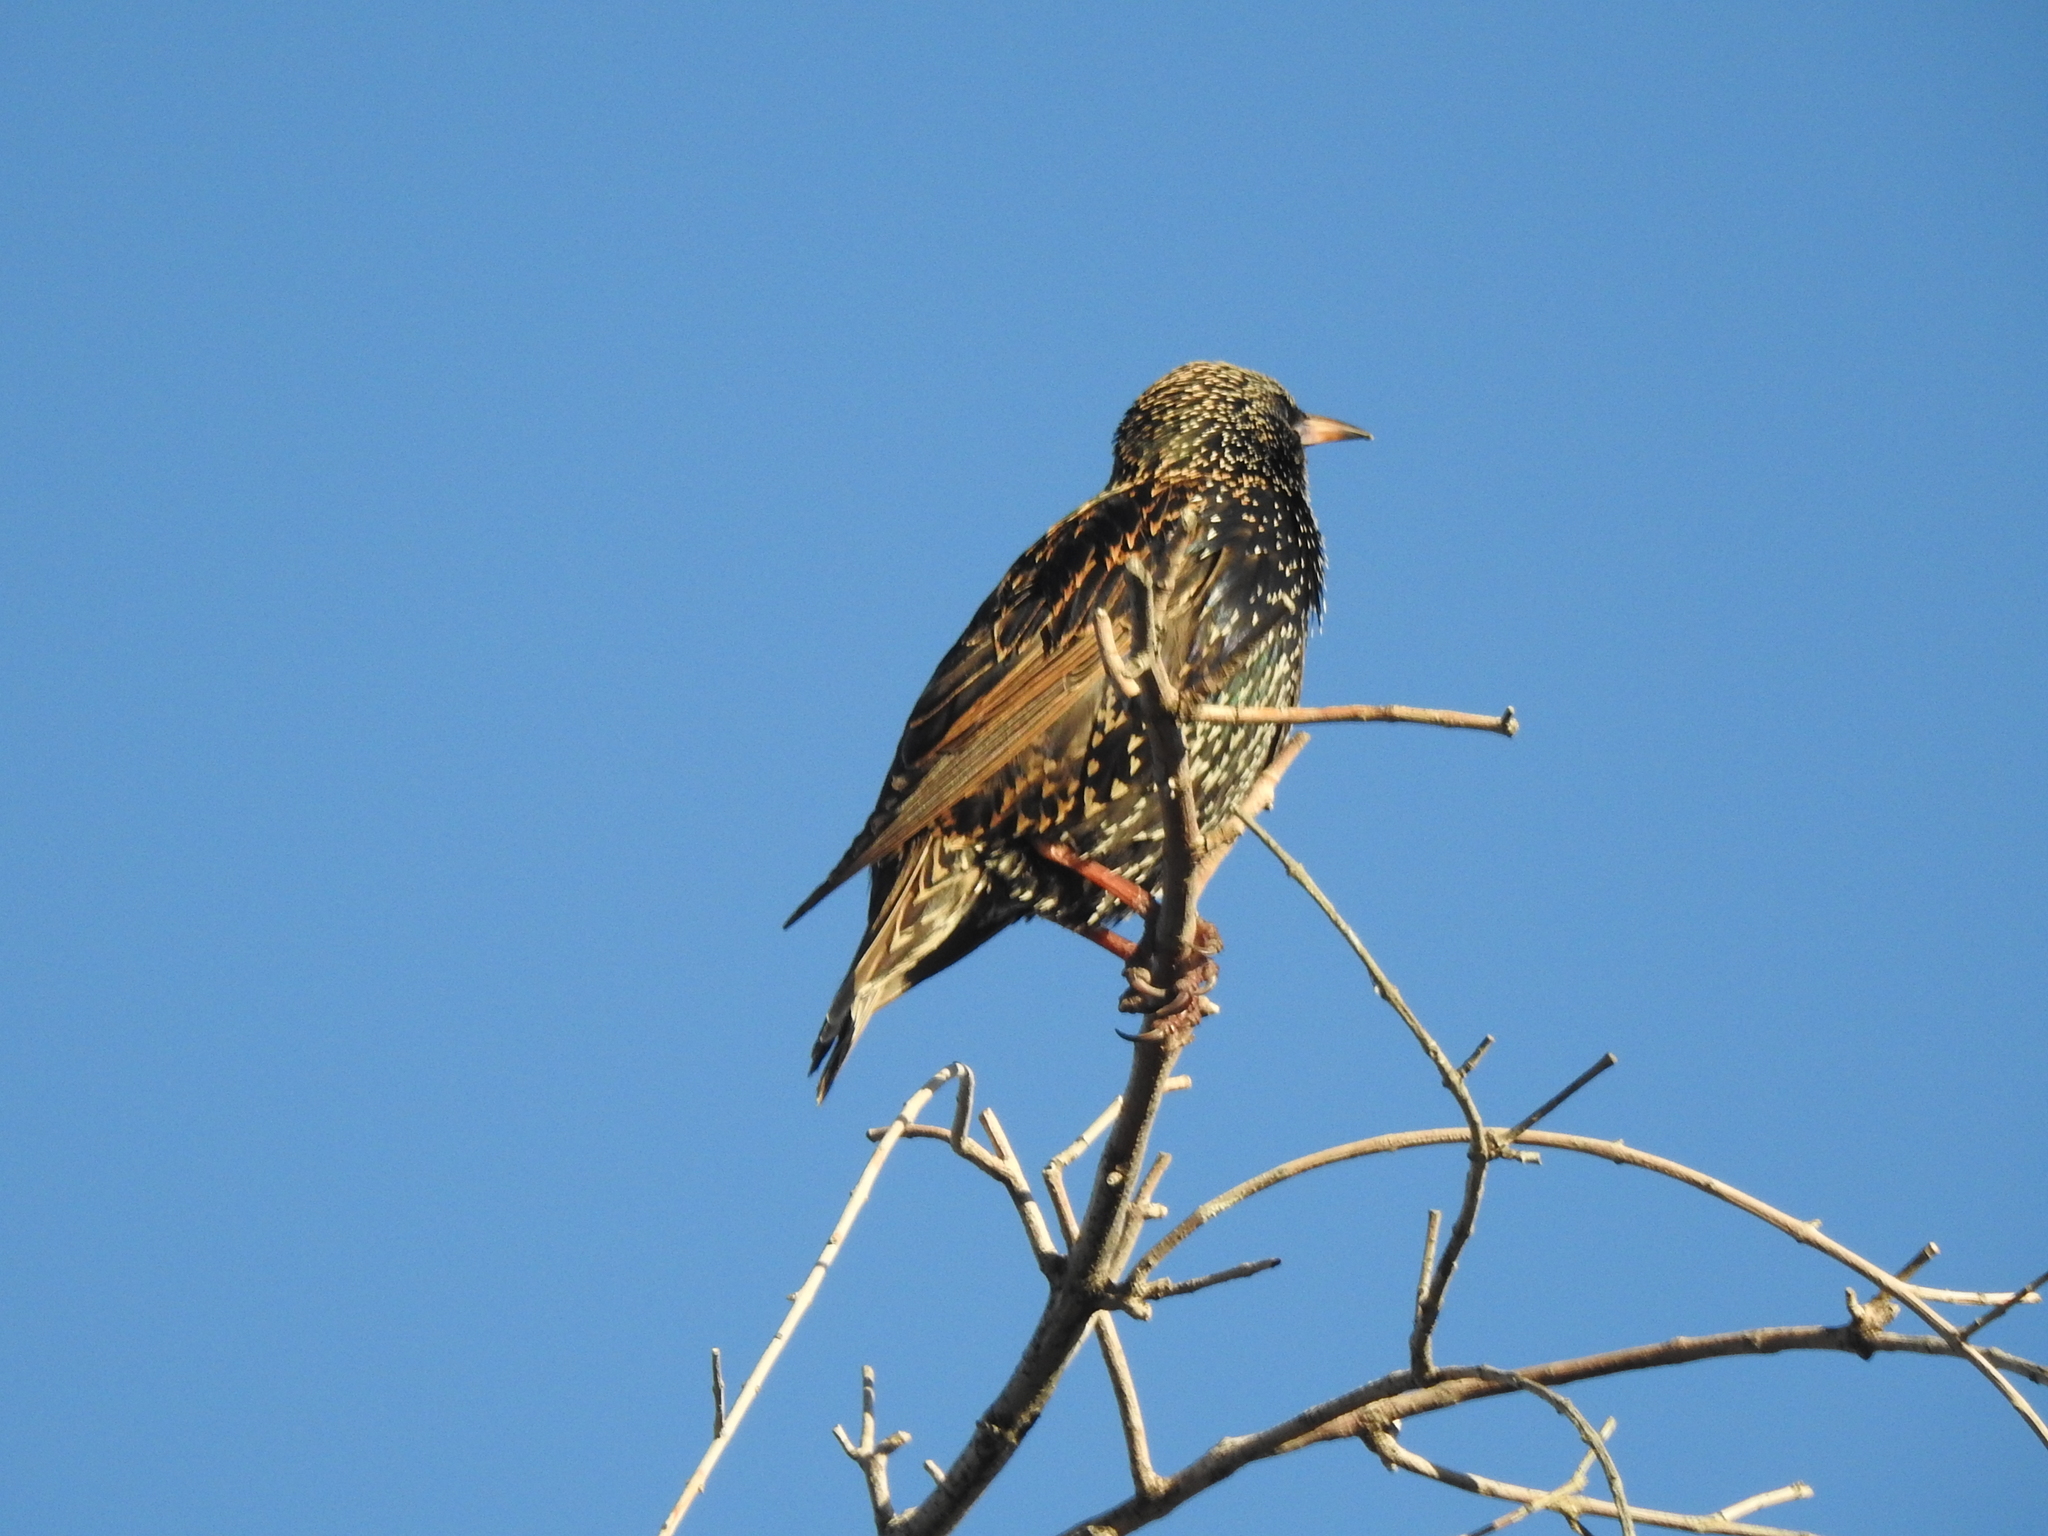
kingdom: Animalia
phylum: Chordata
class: Aves
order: Passeriformes
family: Sturnidae
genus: Sturnus
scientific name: Sturnus vulgaris
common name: Common starling
